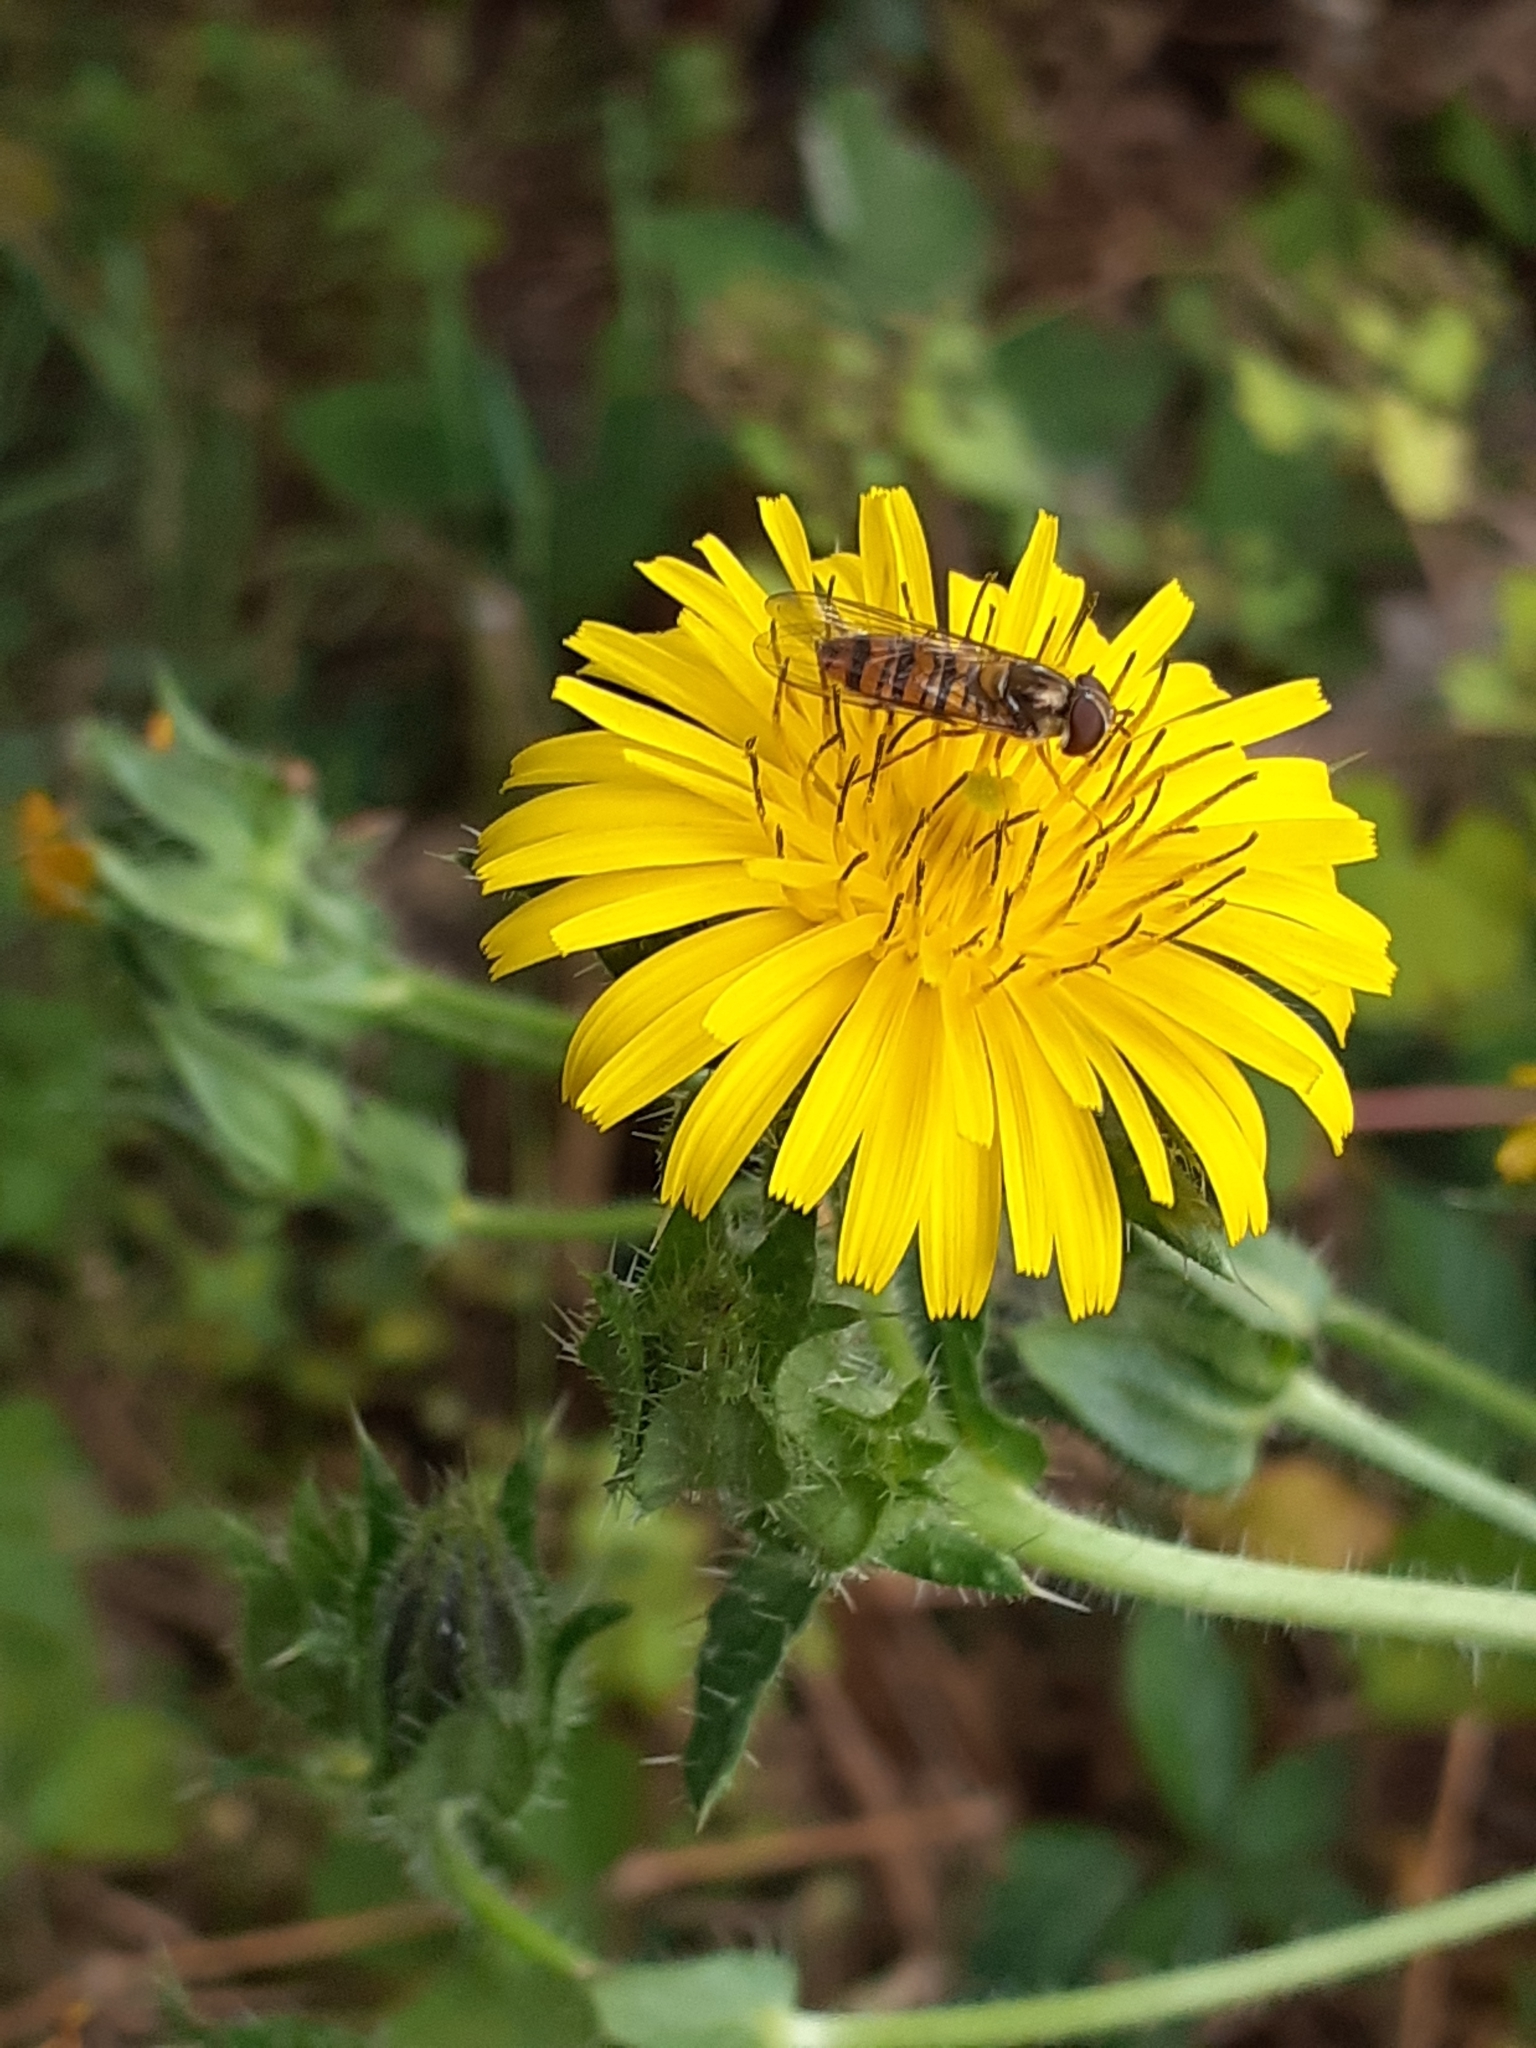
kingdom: Animalia
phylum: Arthropoda
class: Insecta
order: Diptera
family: Syrphidae
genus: Episyrphus
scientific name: Episyrphus balteatus
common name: Marmalade hoverfly
